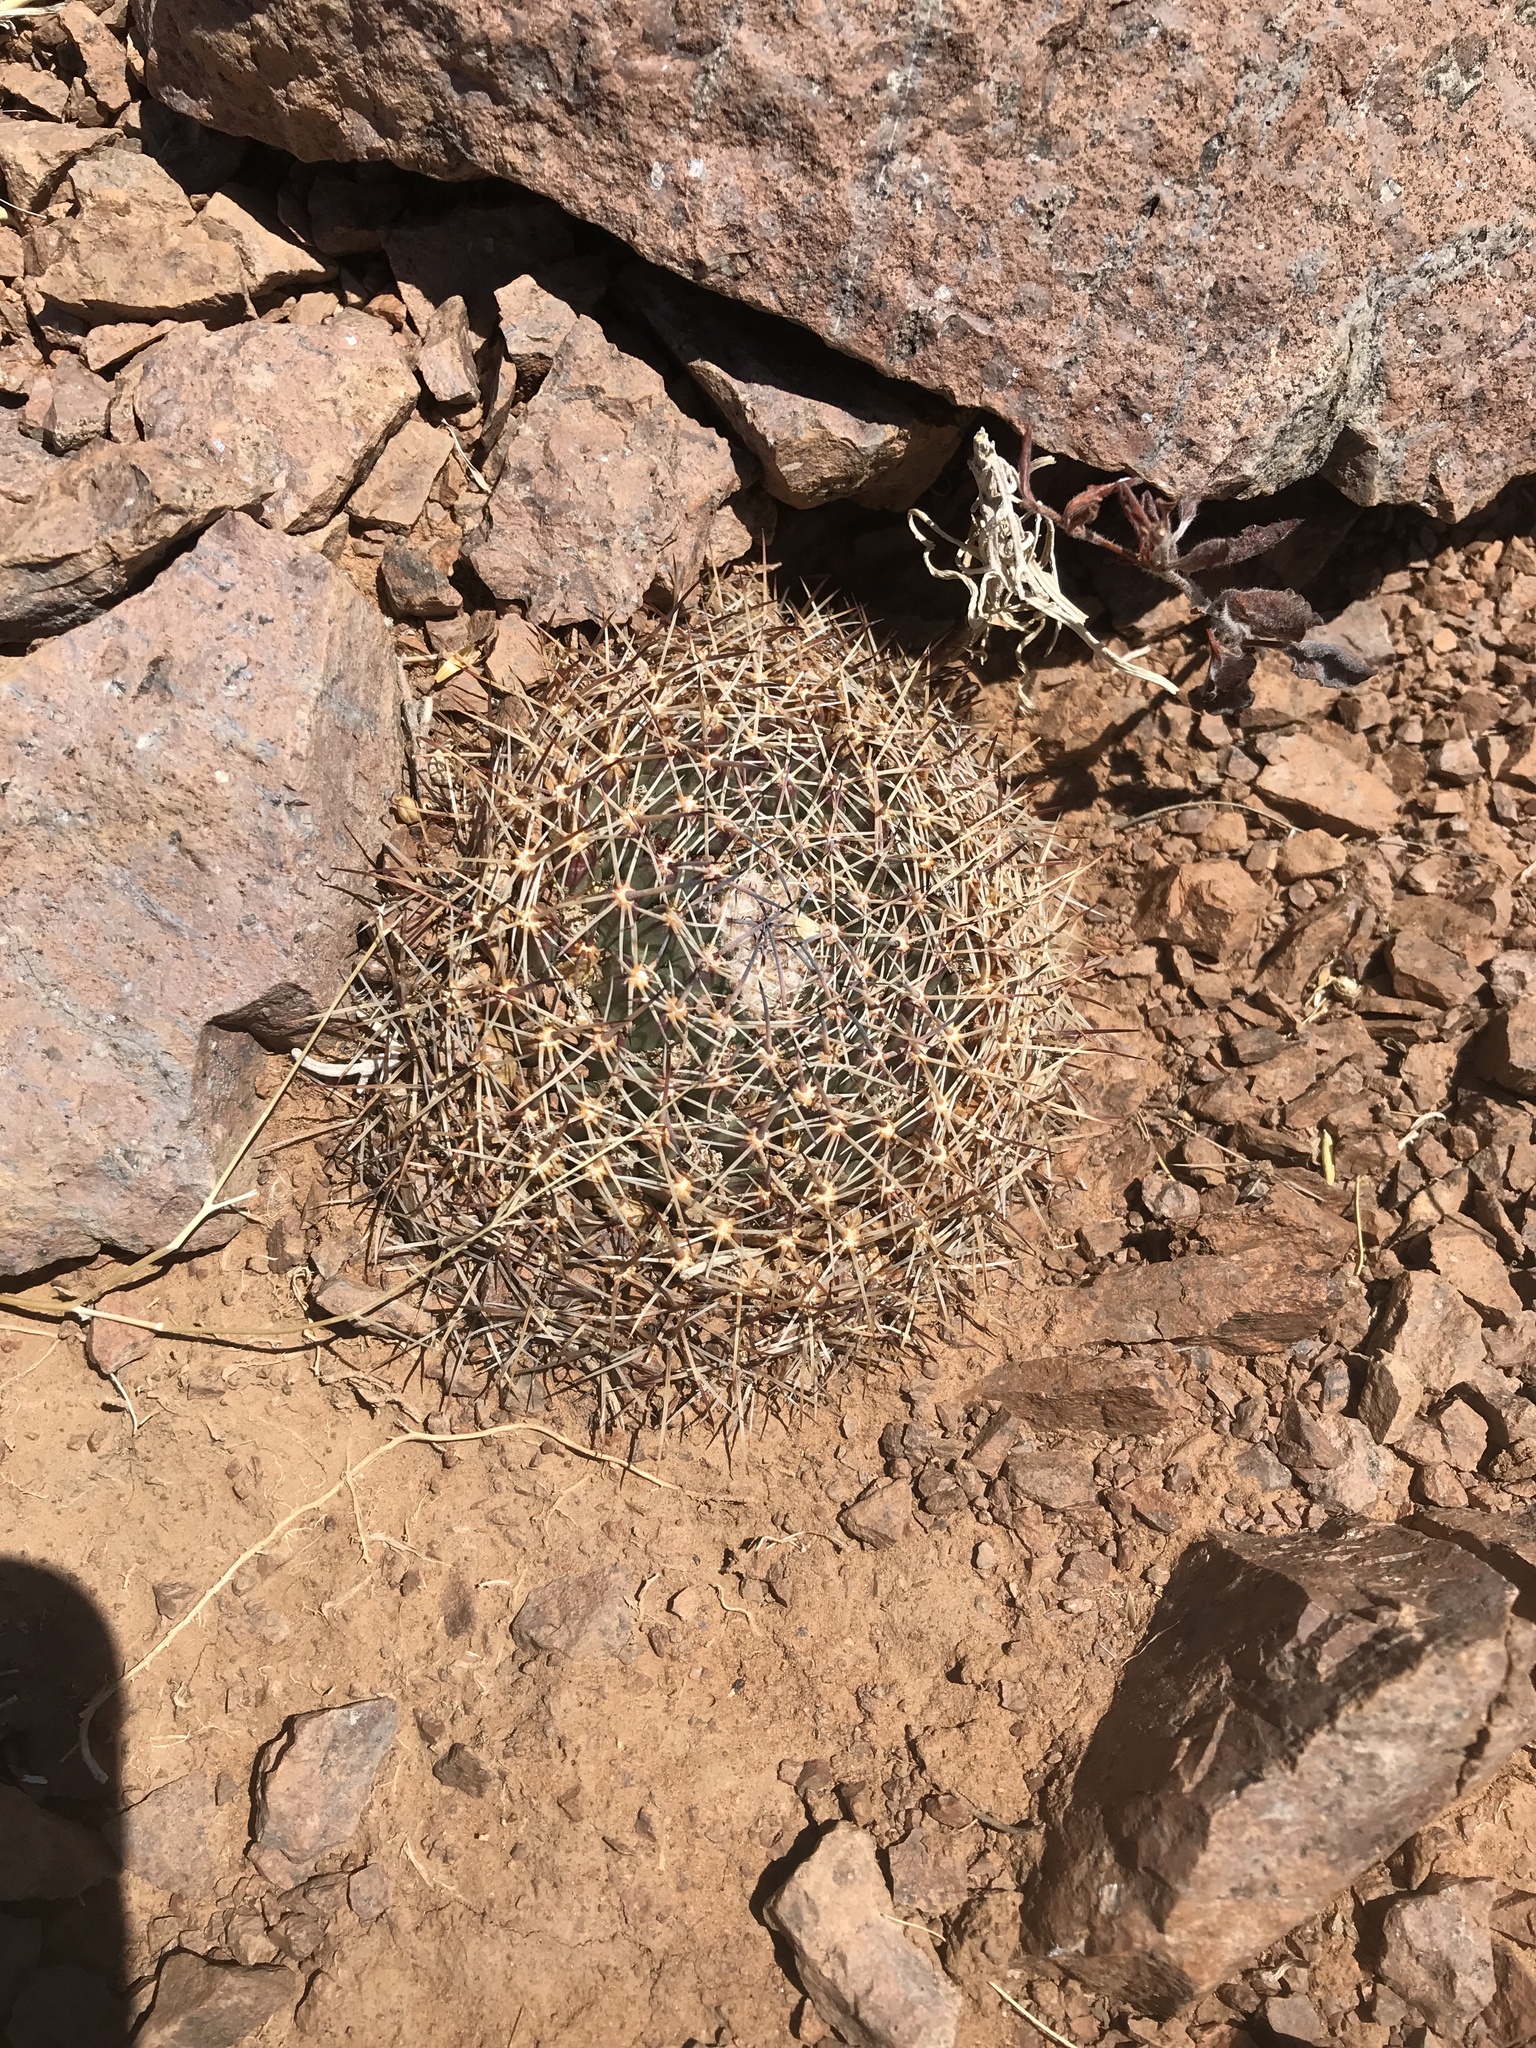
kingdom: Plantae
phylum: Tracheophyta
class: Magnoliopsida
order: Caryophyllales
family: Cactaceae
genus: Mammillaria
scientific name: Mammillaria heyderi
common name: Little nipple cactus
